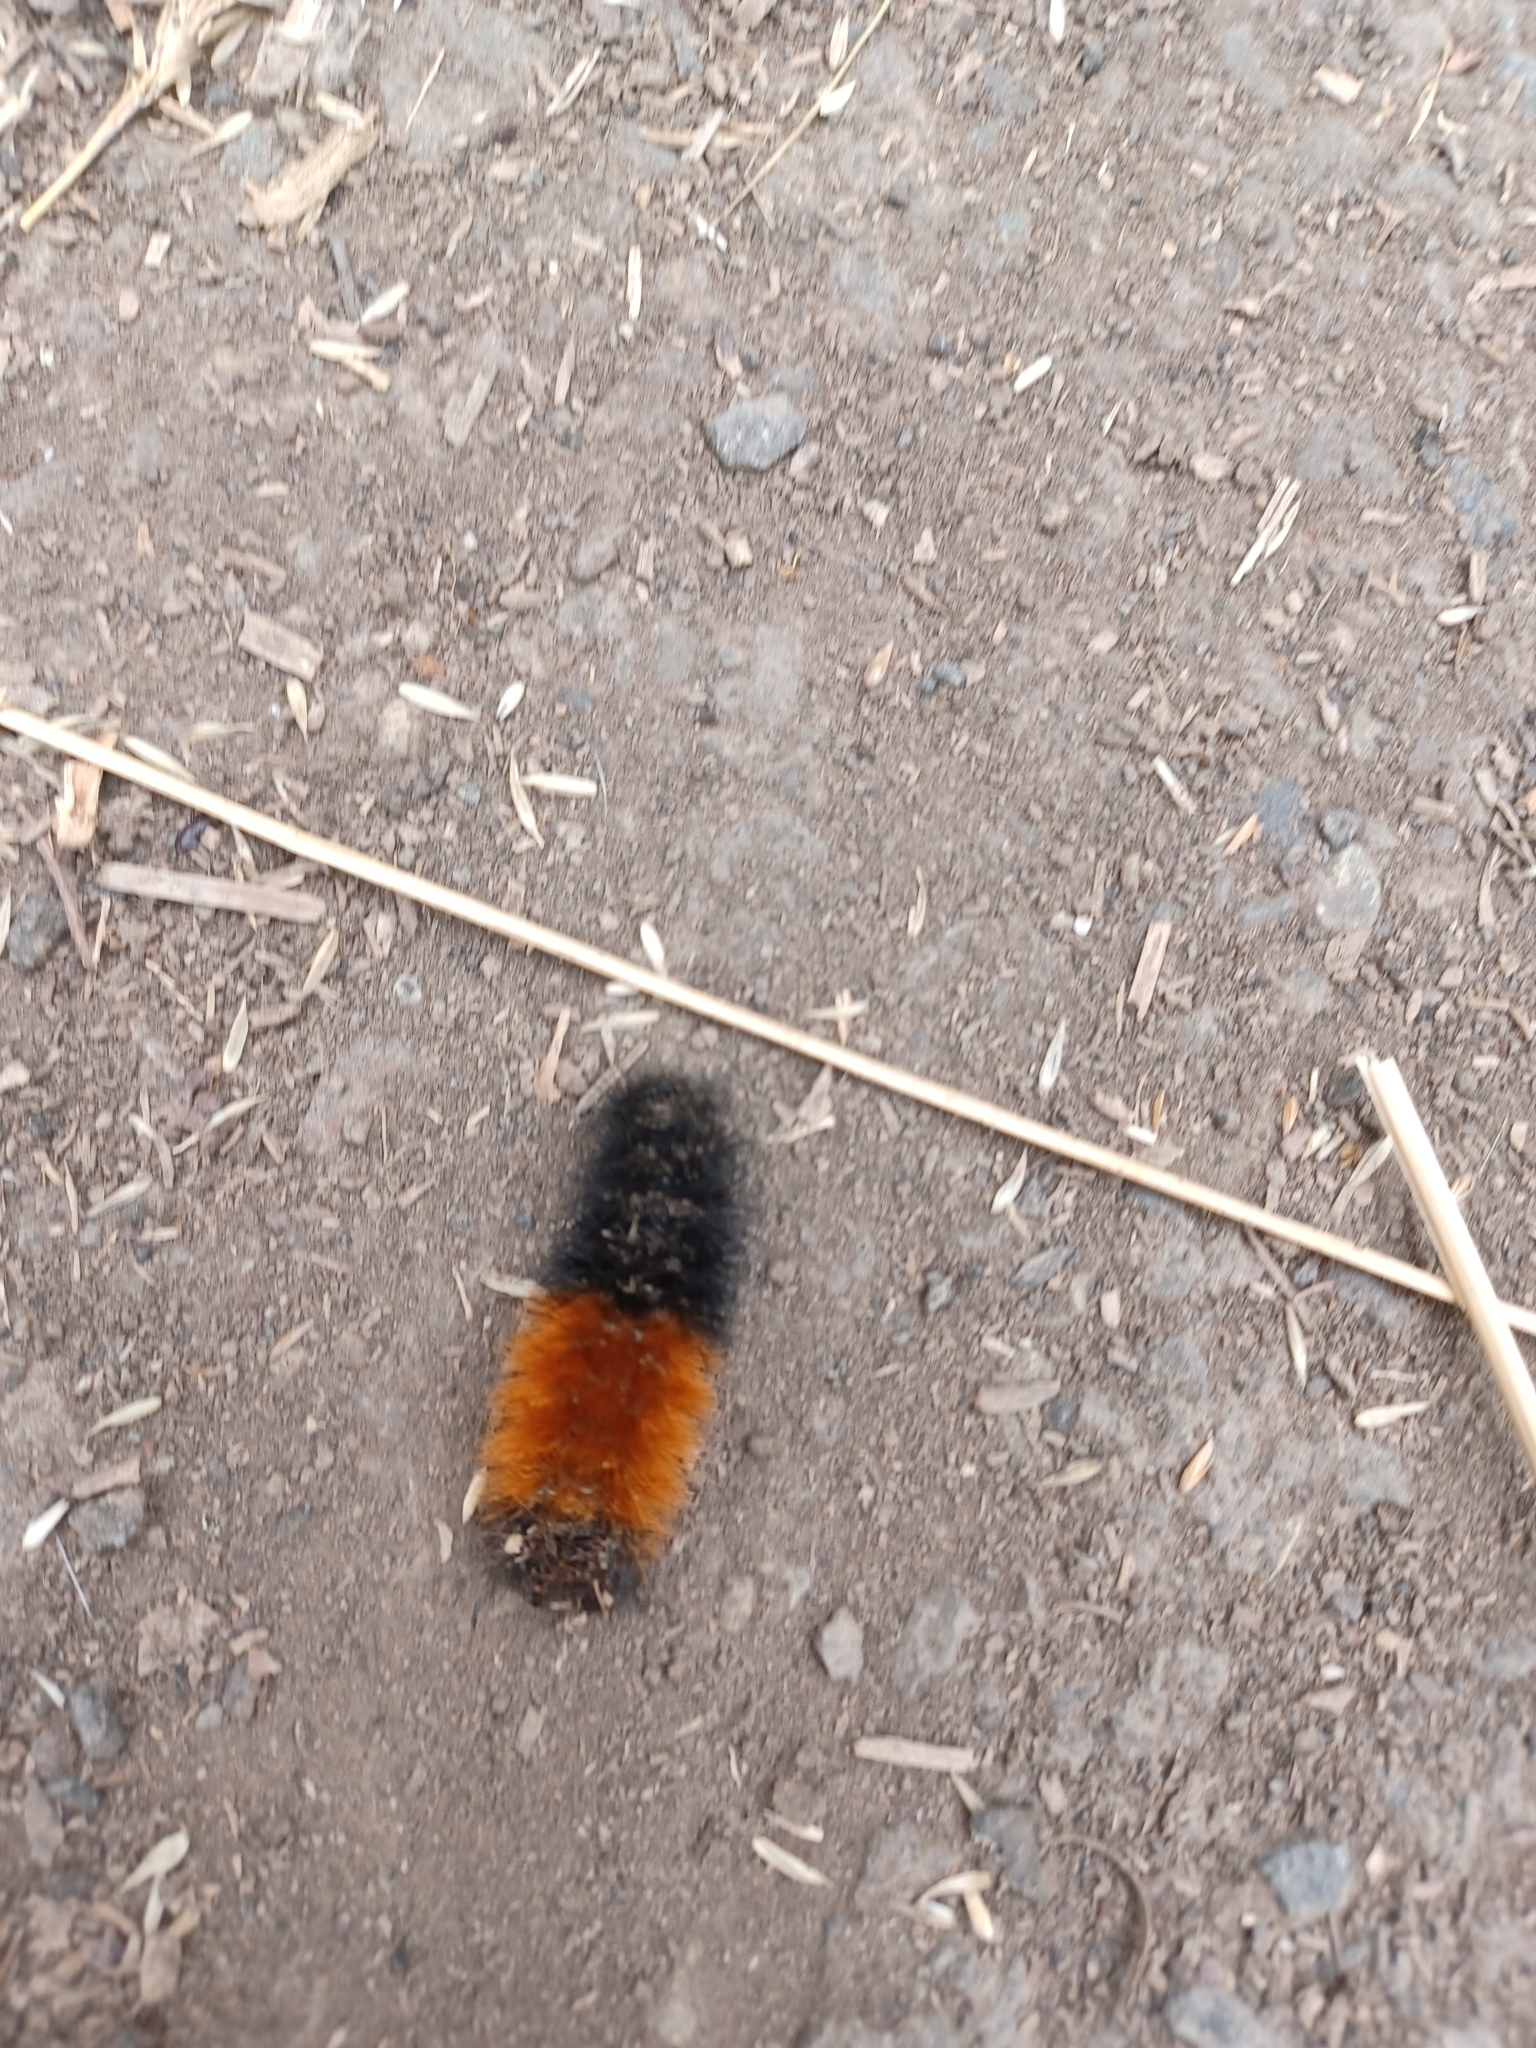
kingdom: Animalia
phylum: Arthropoda
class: Insecta
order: Lepidoptera
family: Erebidae
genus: Pyrrharctia
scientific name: Pyrrharctia isabella
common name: Isabella tiger moth
